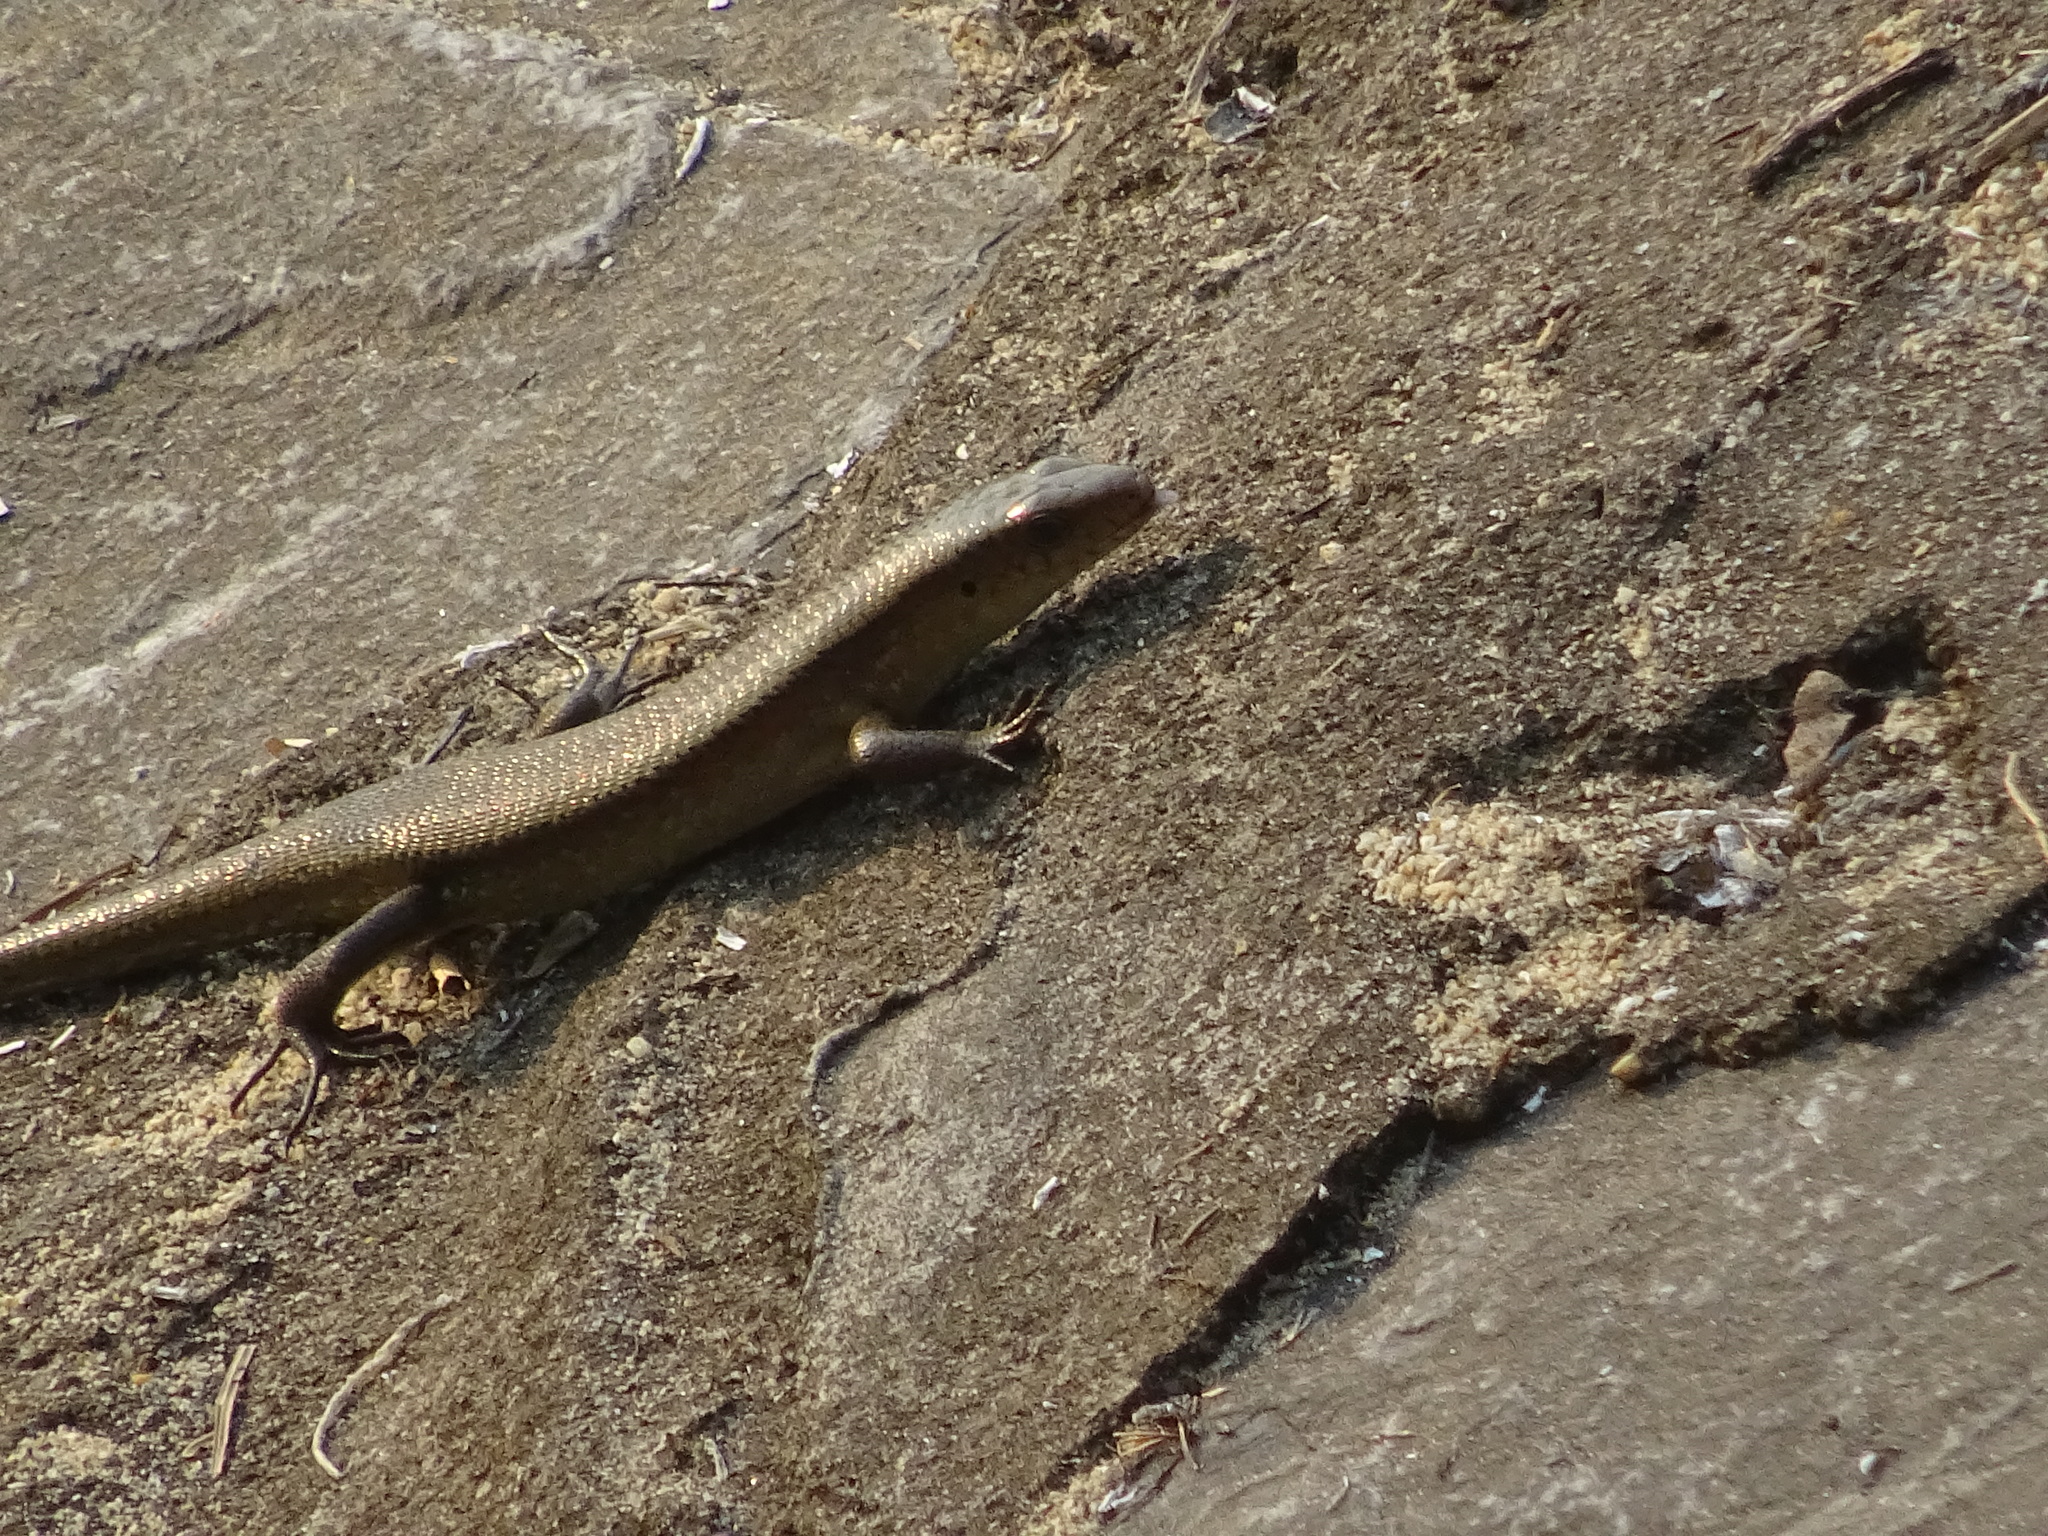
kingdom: Animalia
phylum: Chordata
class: Squamata
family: Scincidae
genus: Eutropis
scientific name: Eutropis multifasciata
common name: Common mabuya
